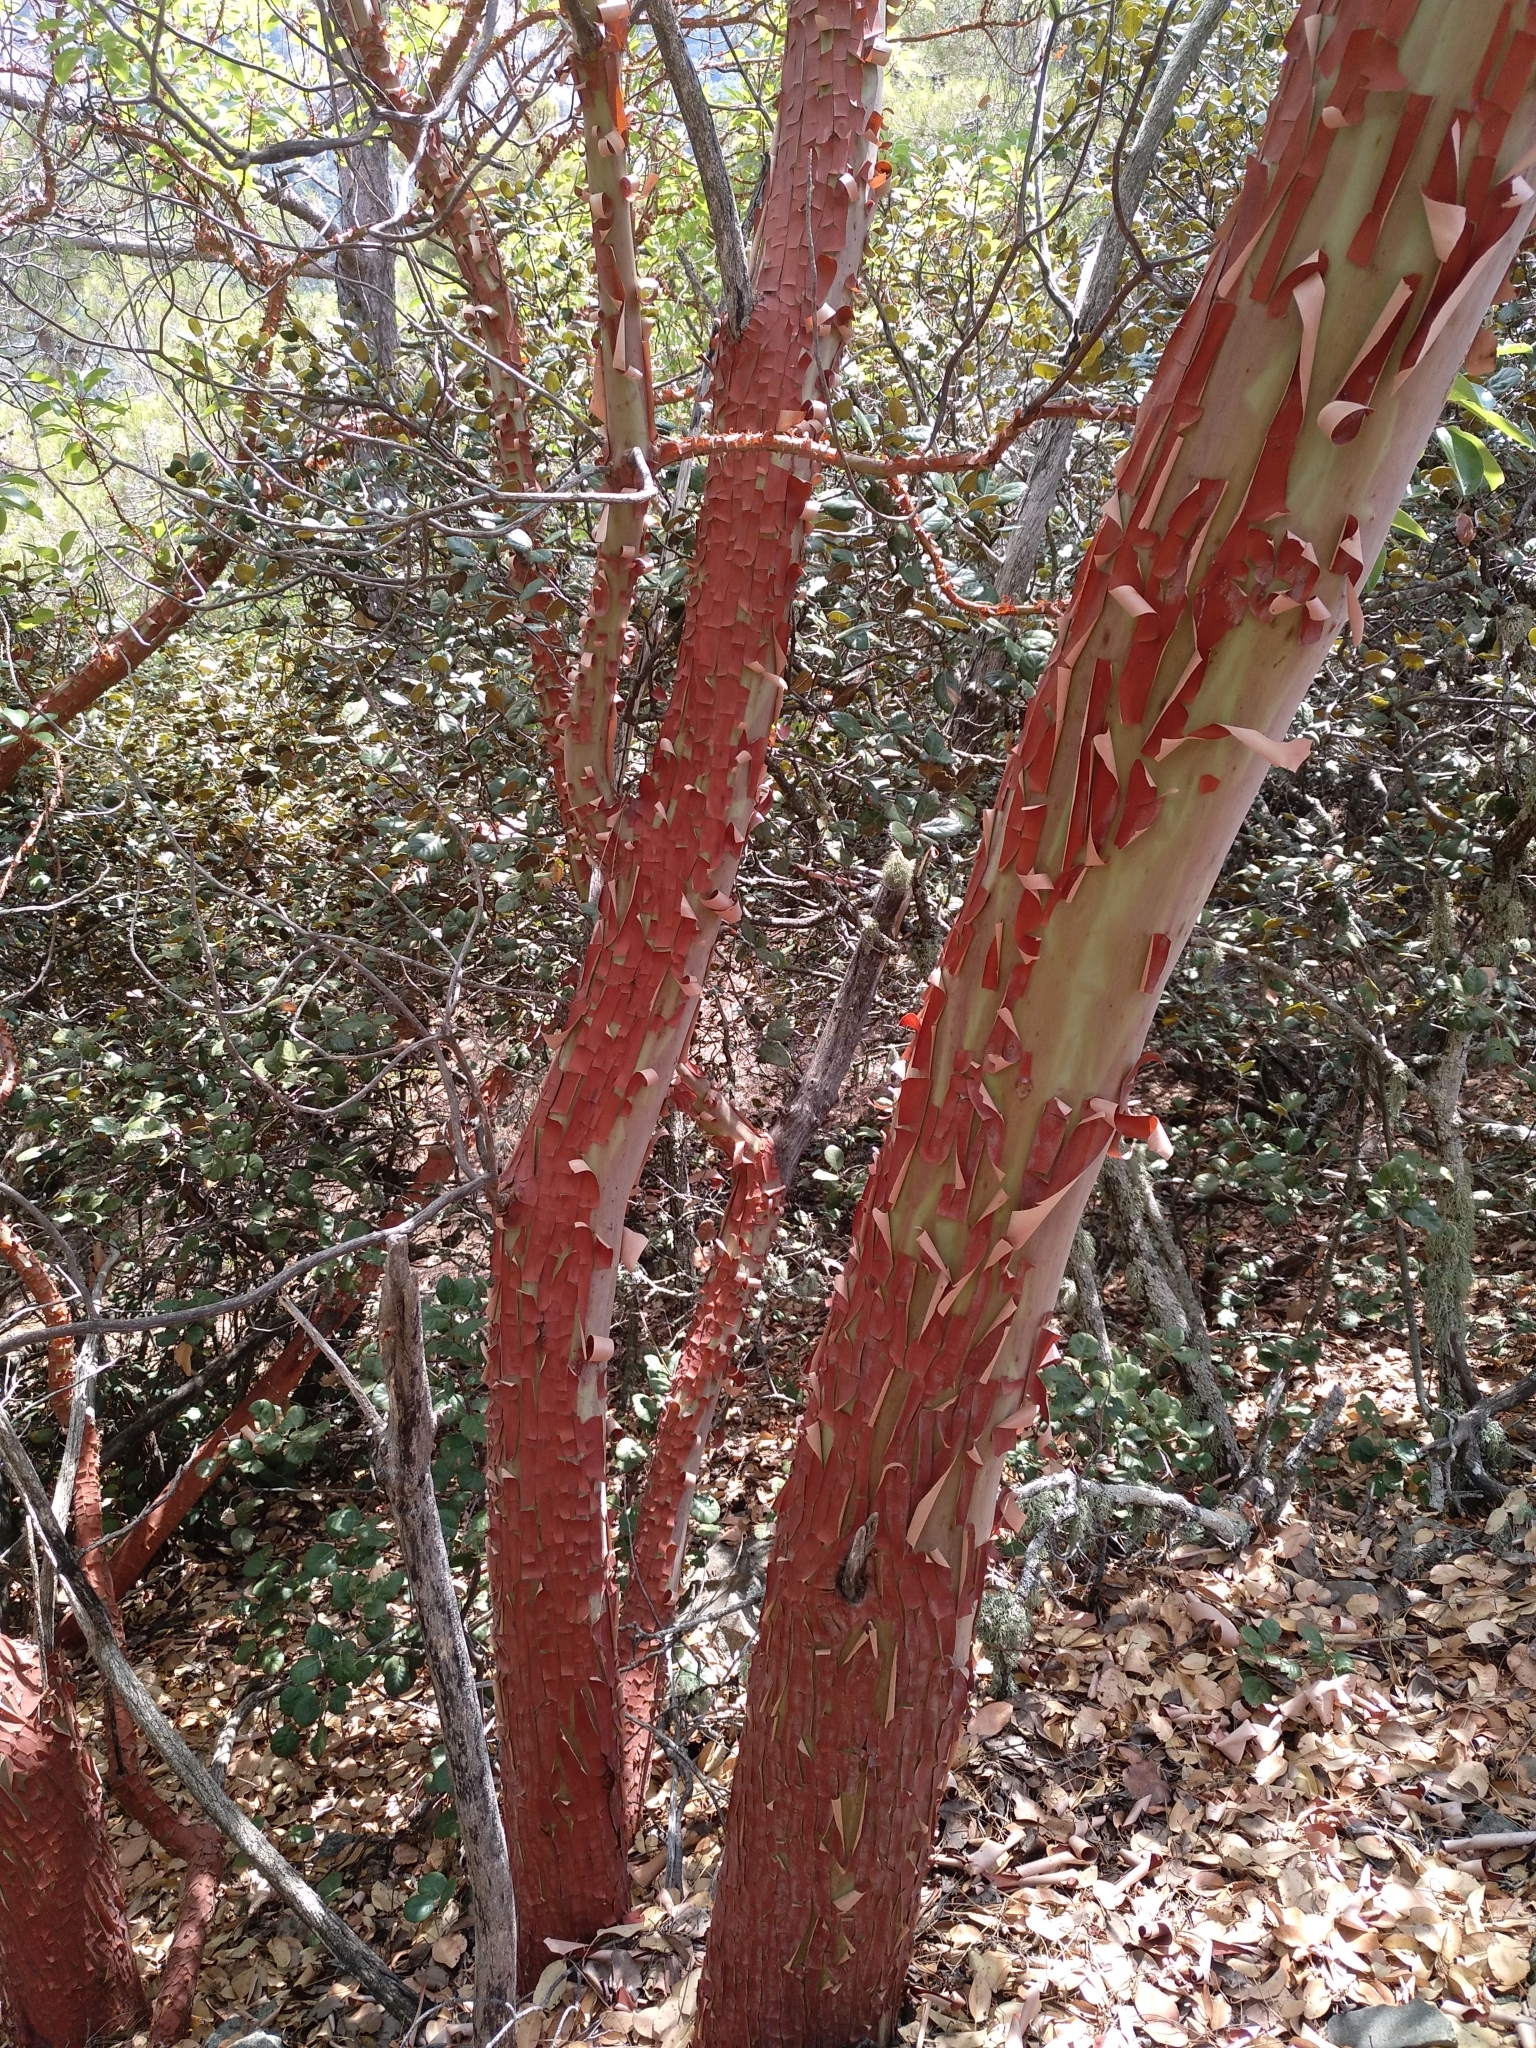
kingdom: Plantae
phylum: Tracheophyta
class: Magnoliopsida
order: Ericales
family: Ericaceae
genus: Arbutus
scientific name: Arbutus andrachne
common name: Greek strawberry tree
